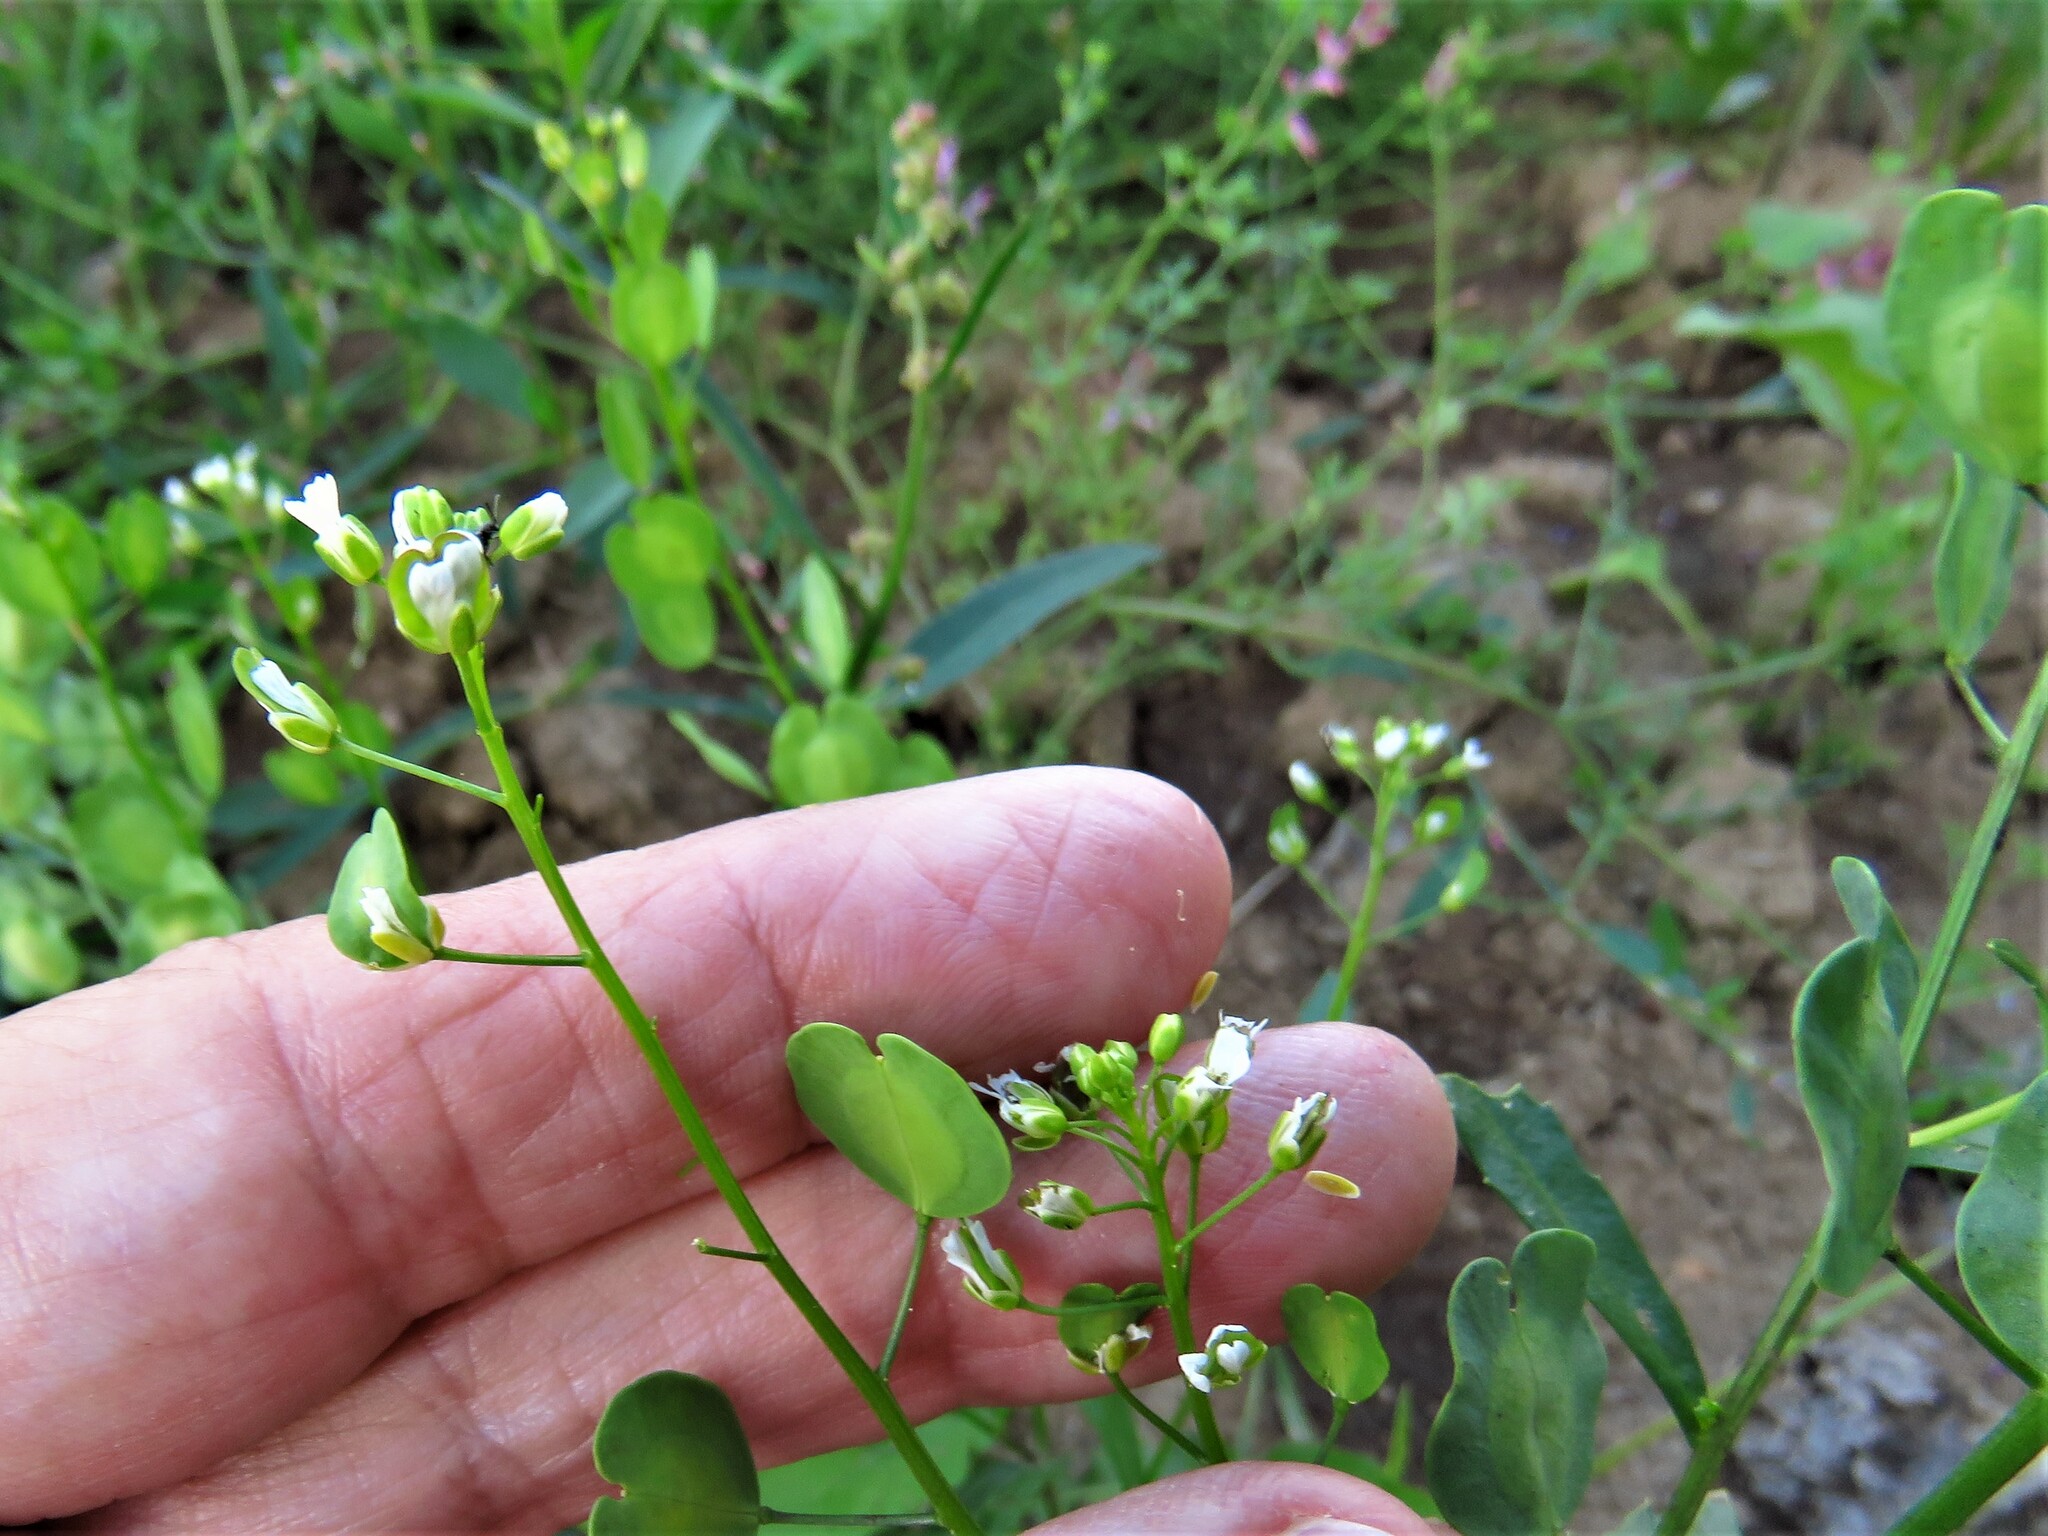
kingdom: Plantae
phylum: Tracheophyta
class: Magnoliopsida
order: Brassicales
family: Brassicaceae
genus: Thlaspi
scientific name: Thlaspi arvense
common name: Field pennycress
